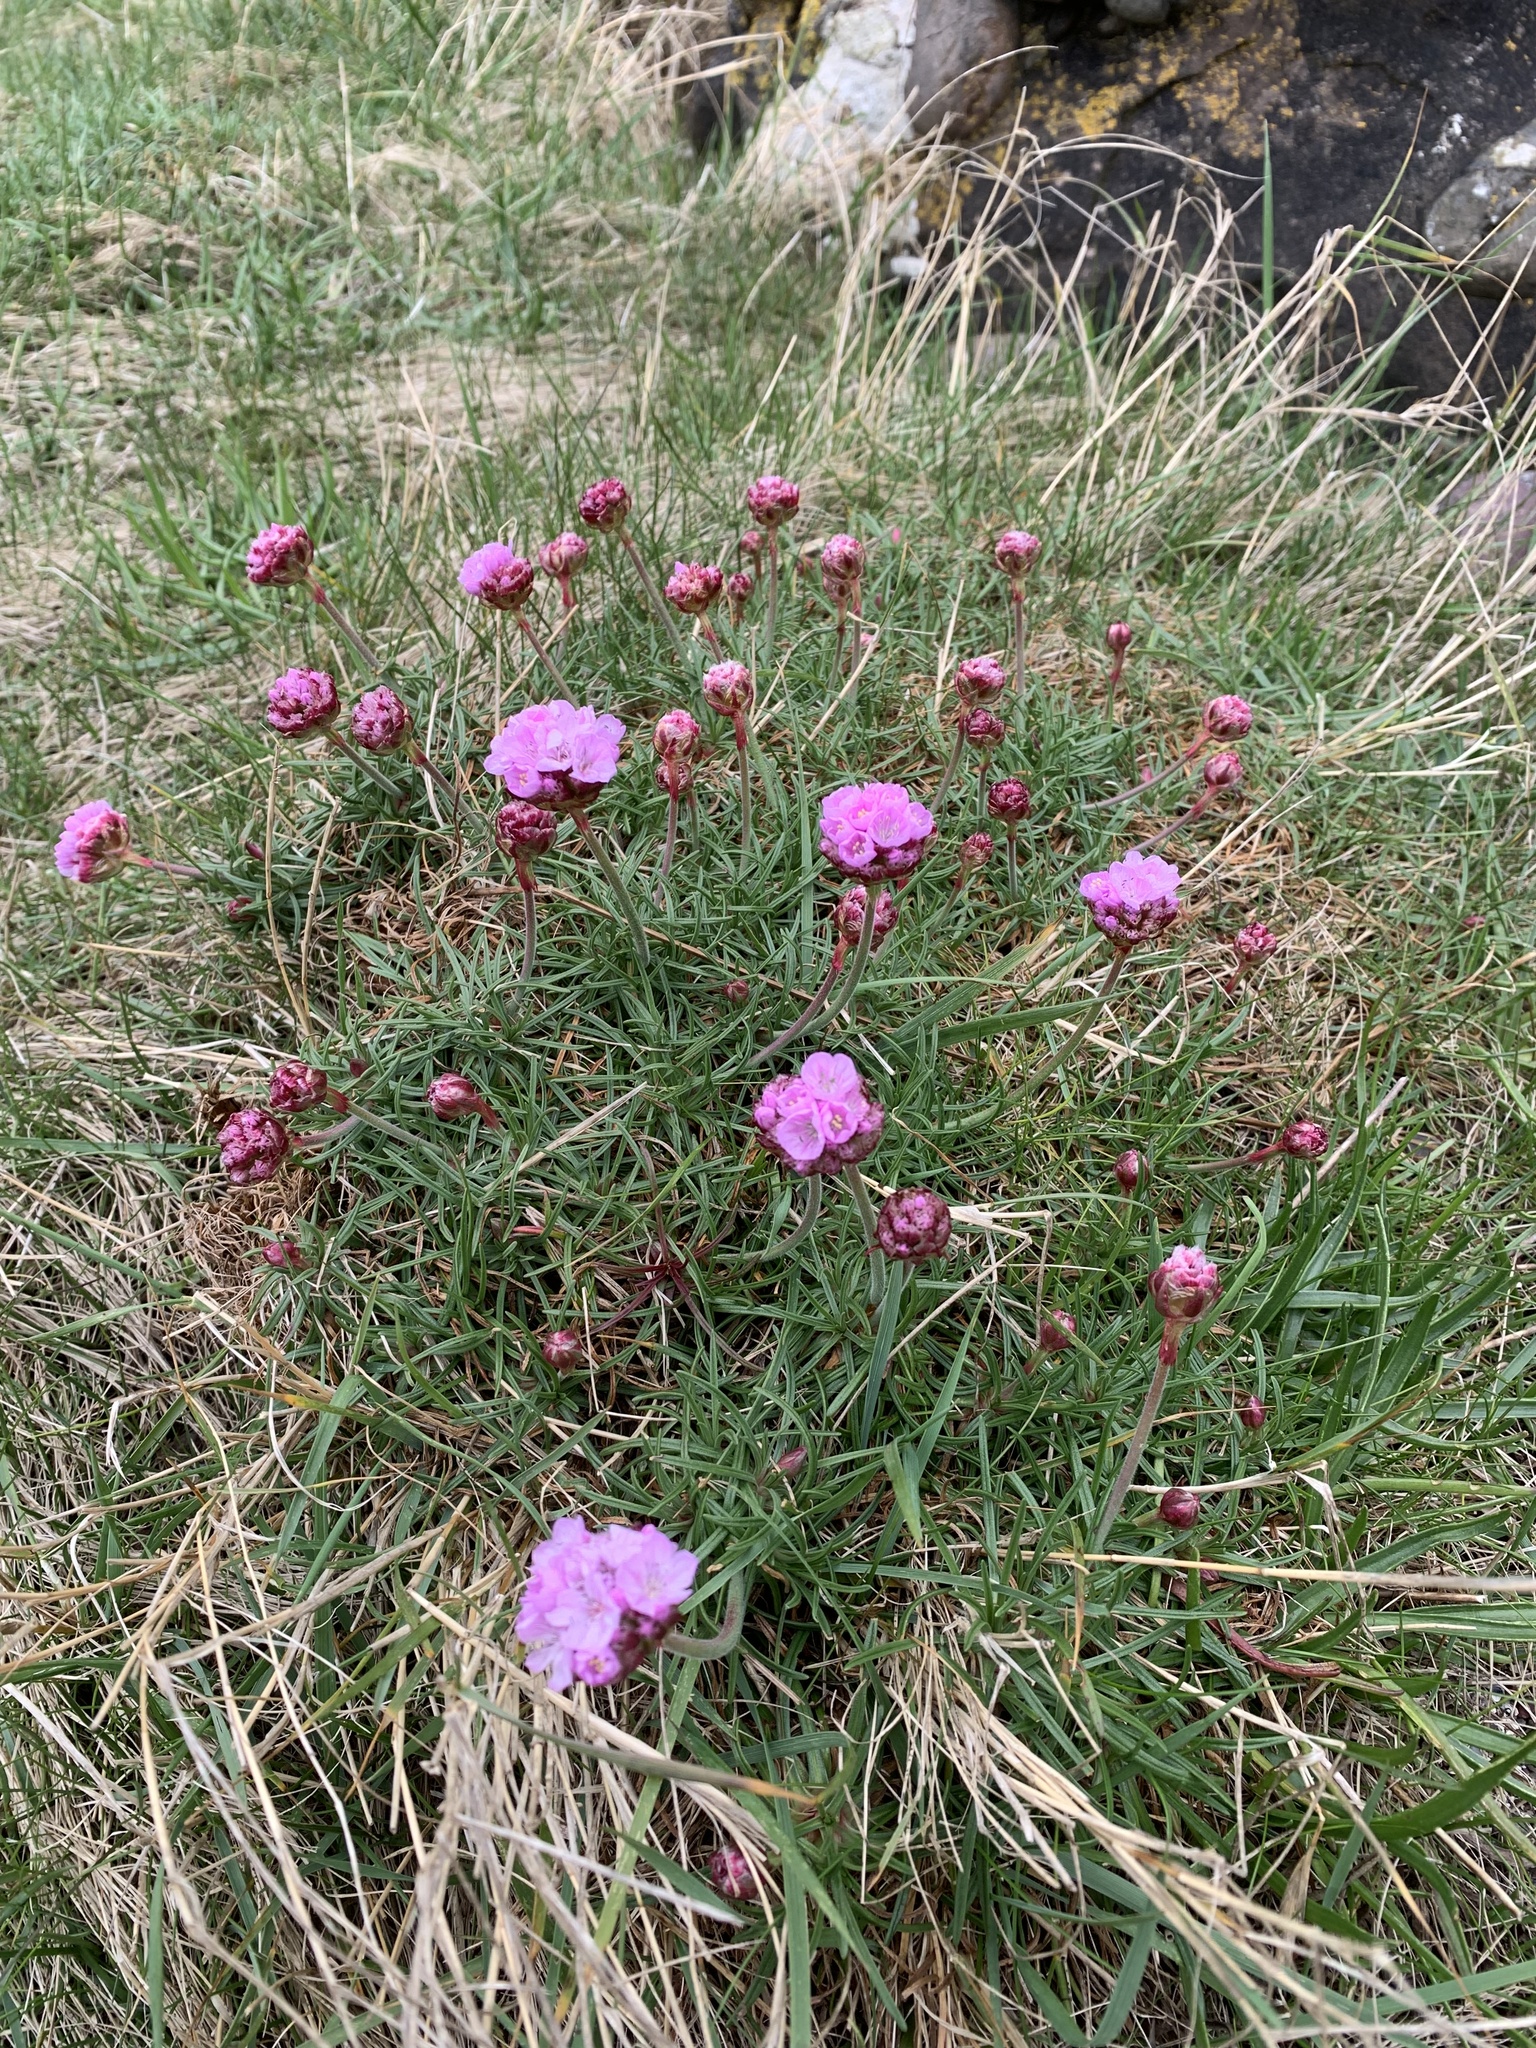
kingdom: Plantae
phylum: Tracheophyta
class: Magnoliopsida
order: Caryophyllales
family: Plumbaginaceae
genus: Armeria
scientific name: Armeria maritima
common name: Thrift
